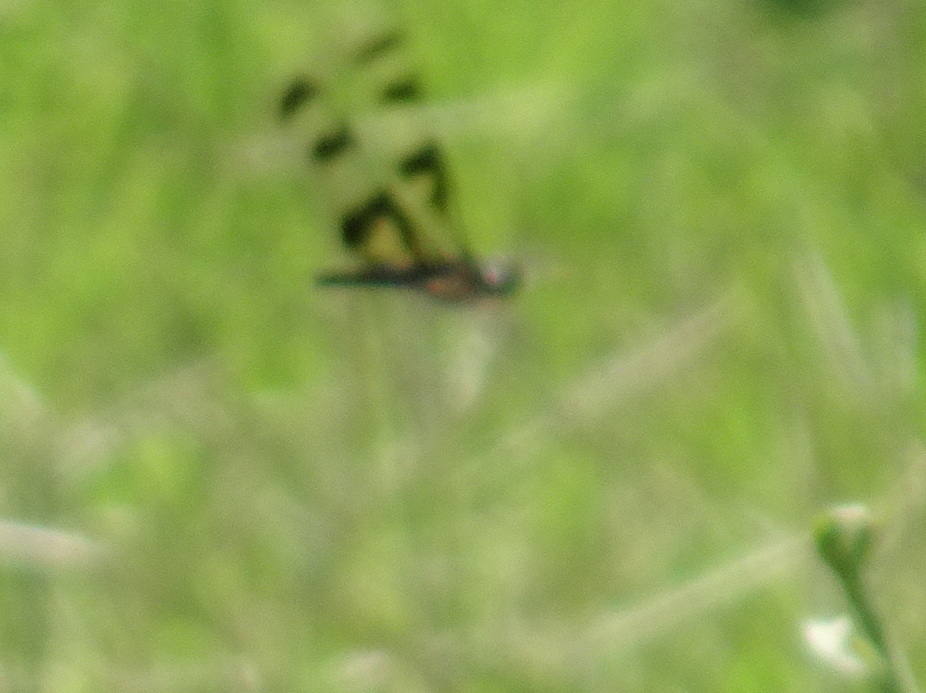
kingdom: Animalia
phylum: Arthropoda
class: Insecta
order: Odonata
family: Libellulidae
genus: Celithemis
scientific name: Celithemis fasciata
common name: Banded pennant
